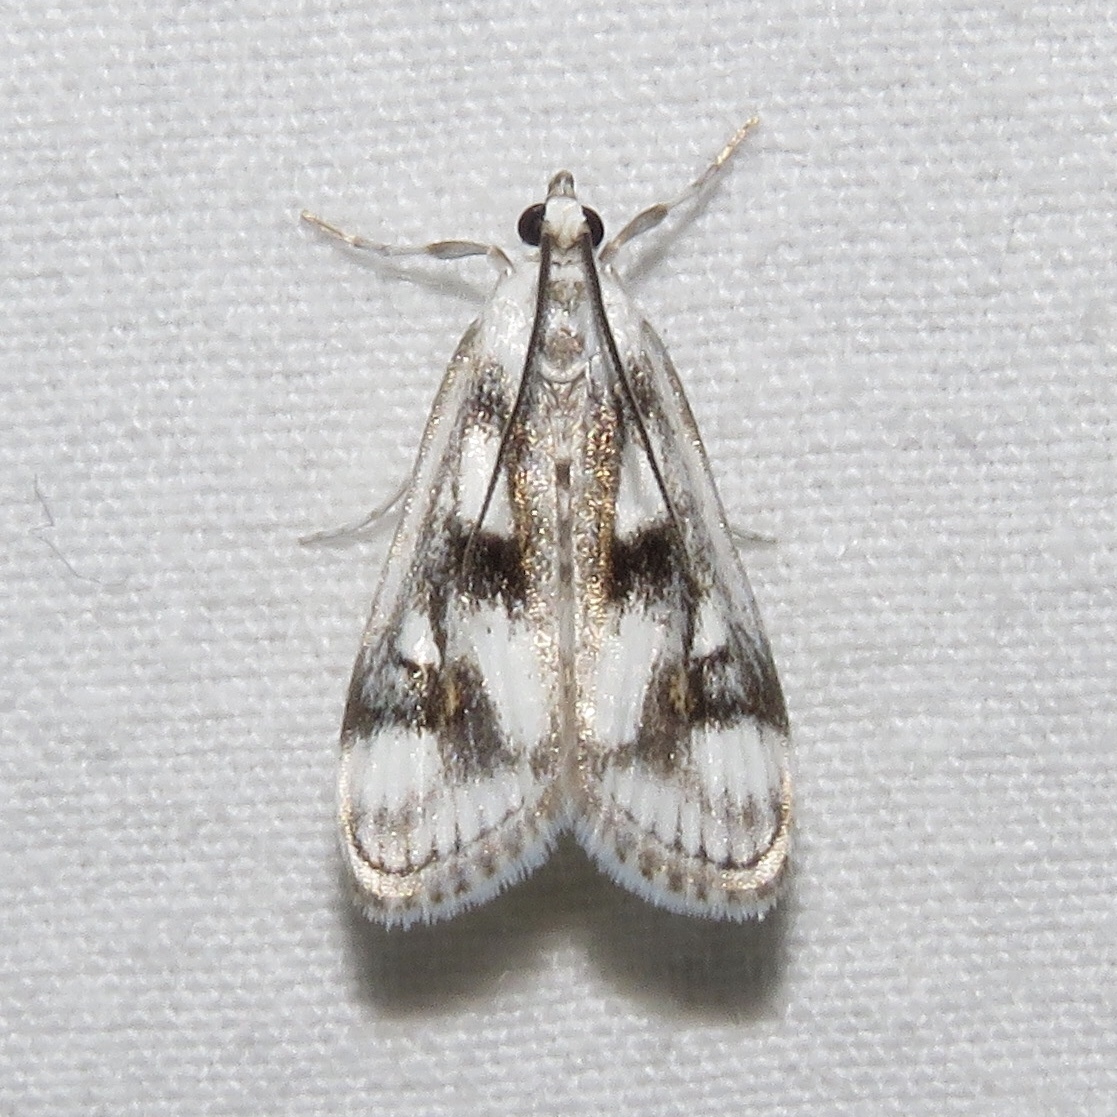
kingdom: Animalia
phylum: Arthropoda
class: Insecta
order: Lepidoptera
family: Crambidae
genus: Parapoynx
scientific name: Parapoynx maculalis
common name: Polymorphic pondweed moth
